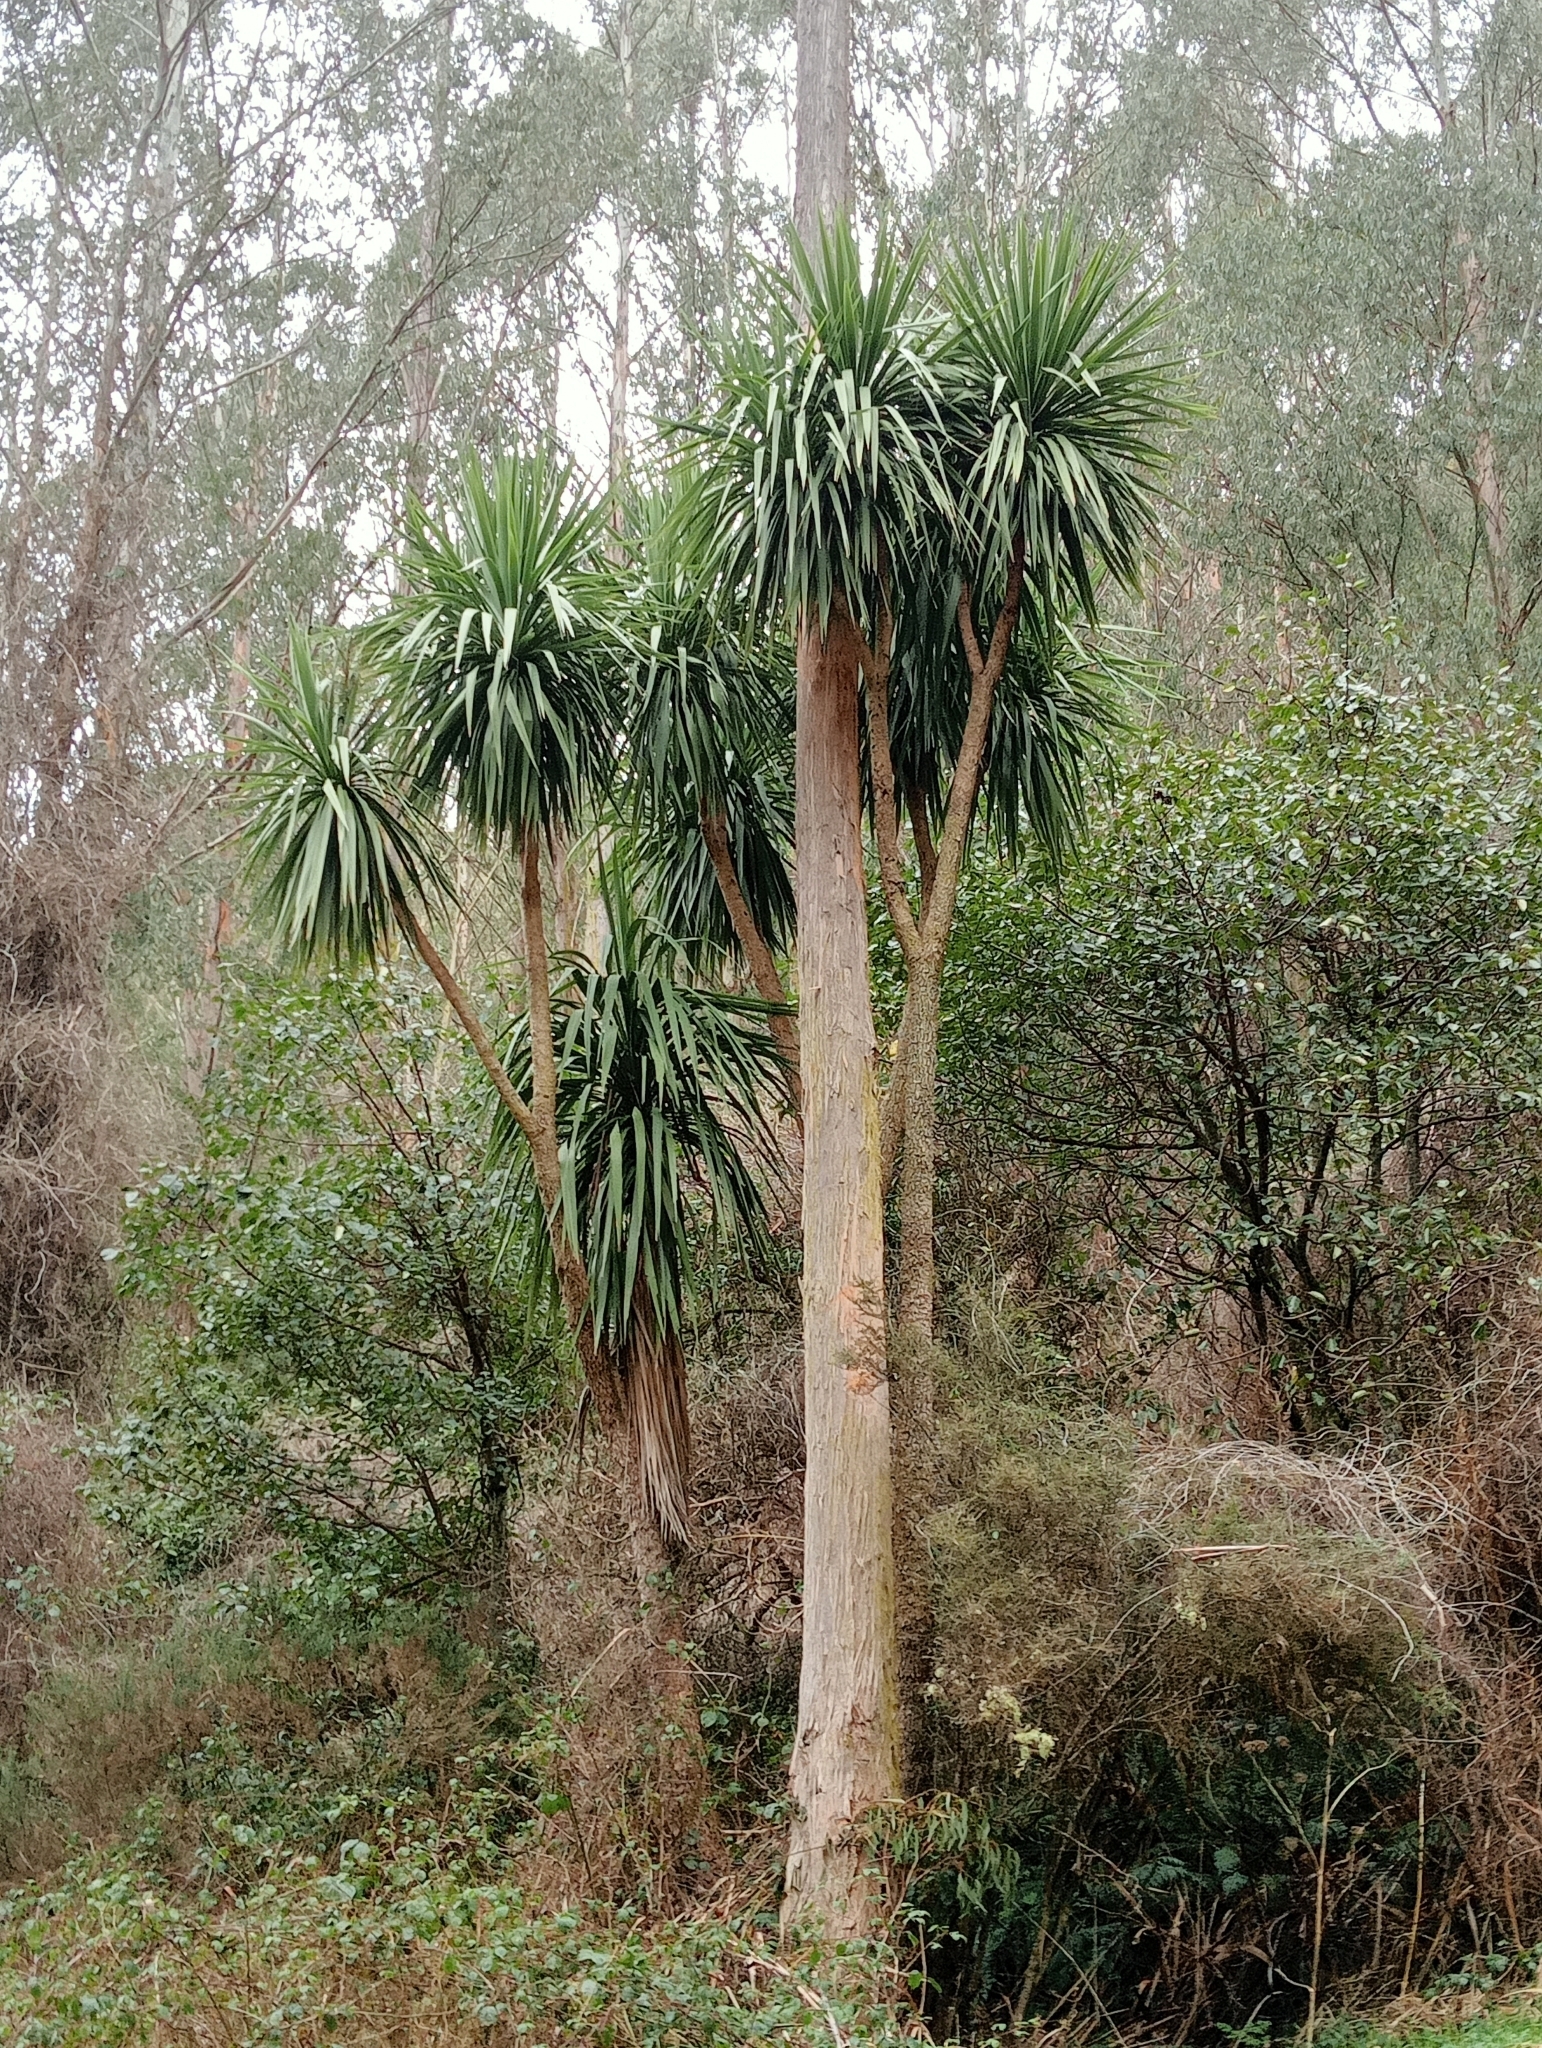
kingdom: Plantae
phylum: Tracheophyta
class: Liliopsida
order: Asparagales
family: Asparagaceae
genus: Cordyline
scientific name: Cordyline australis
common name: Cabbage-palm
